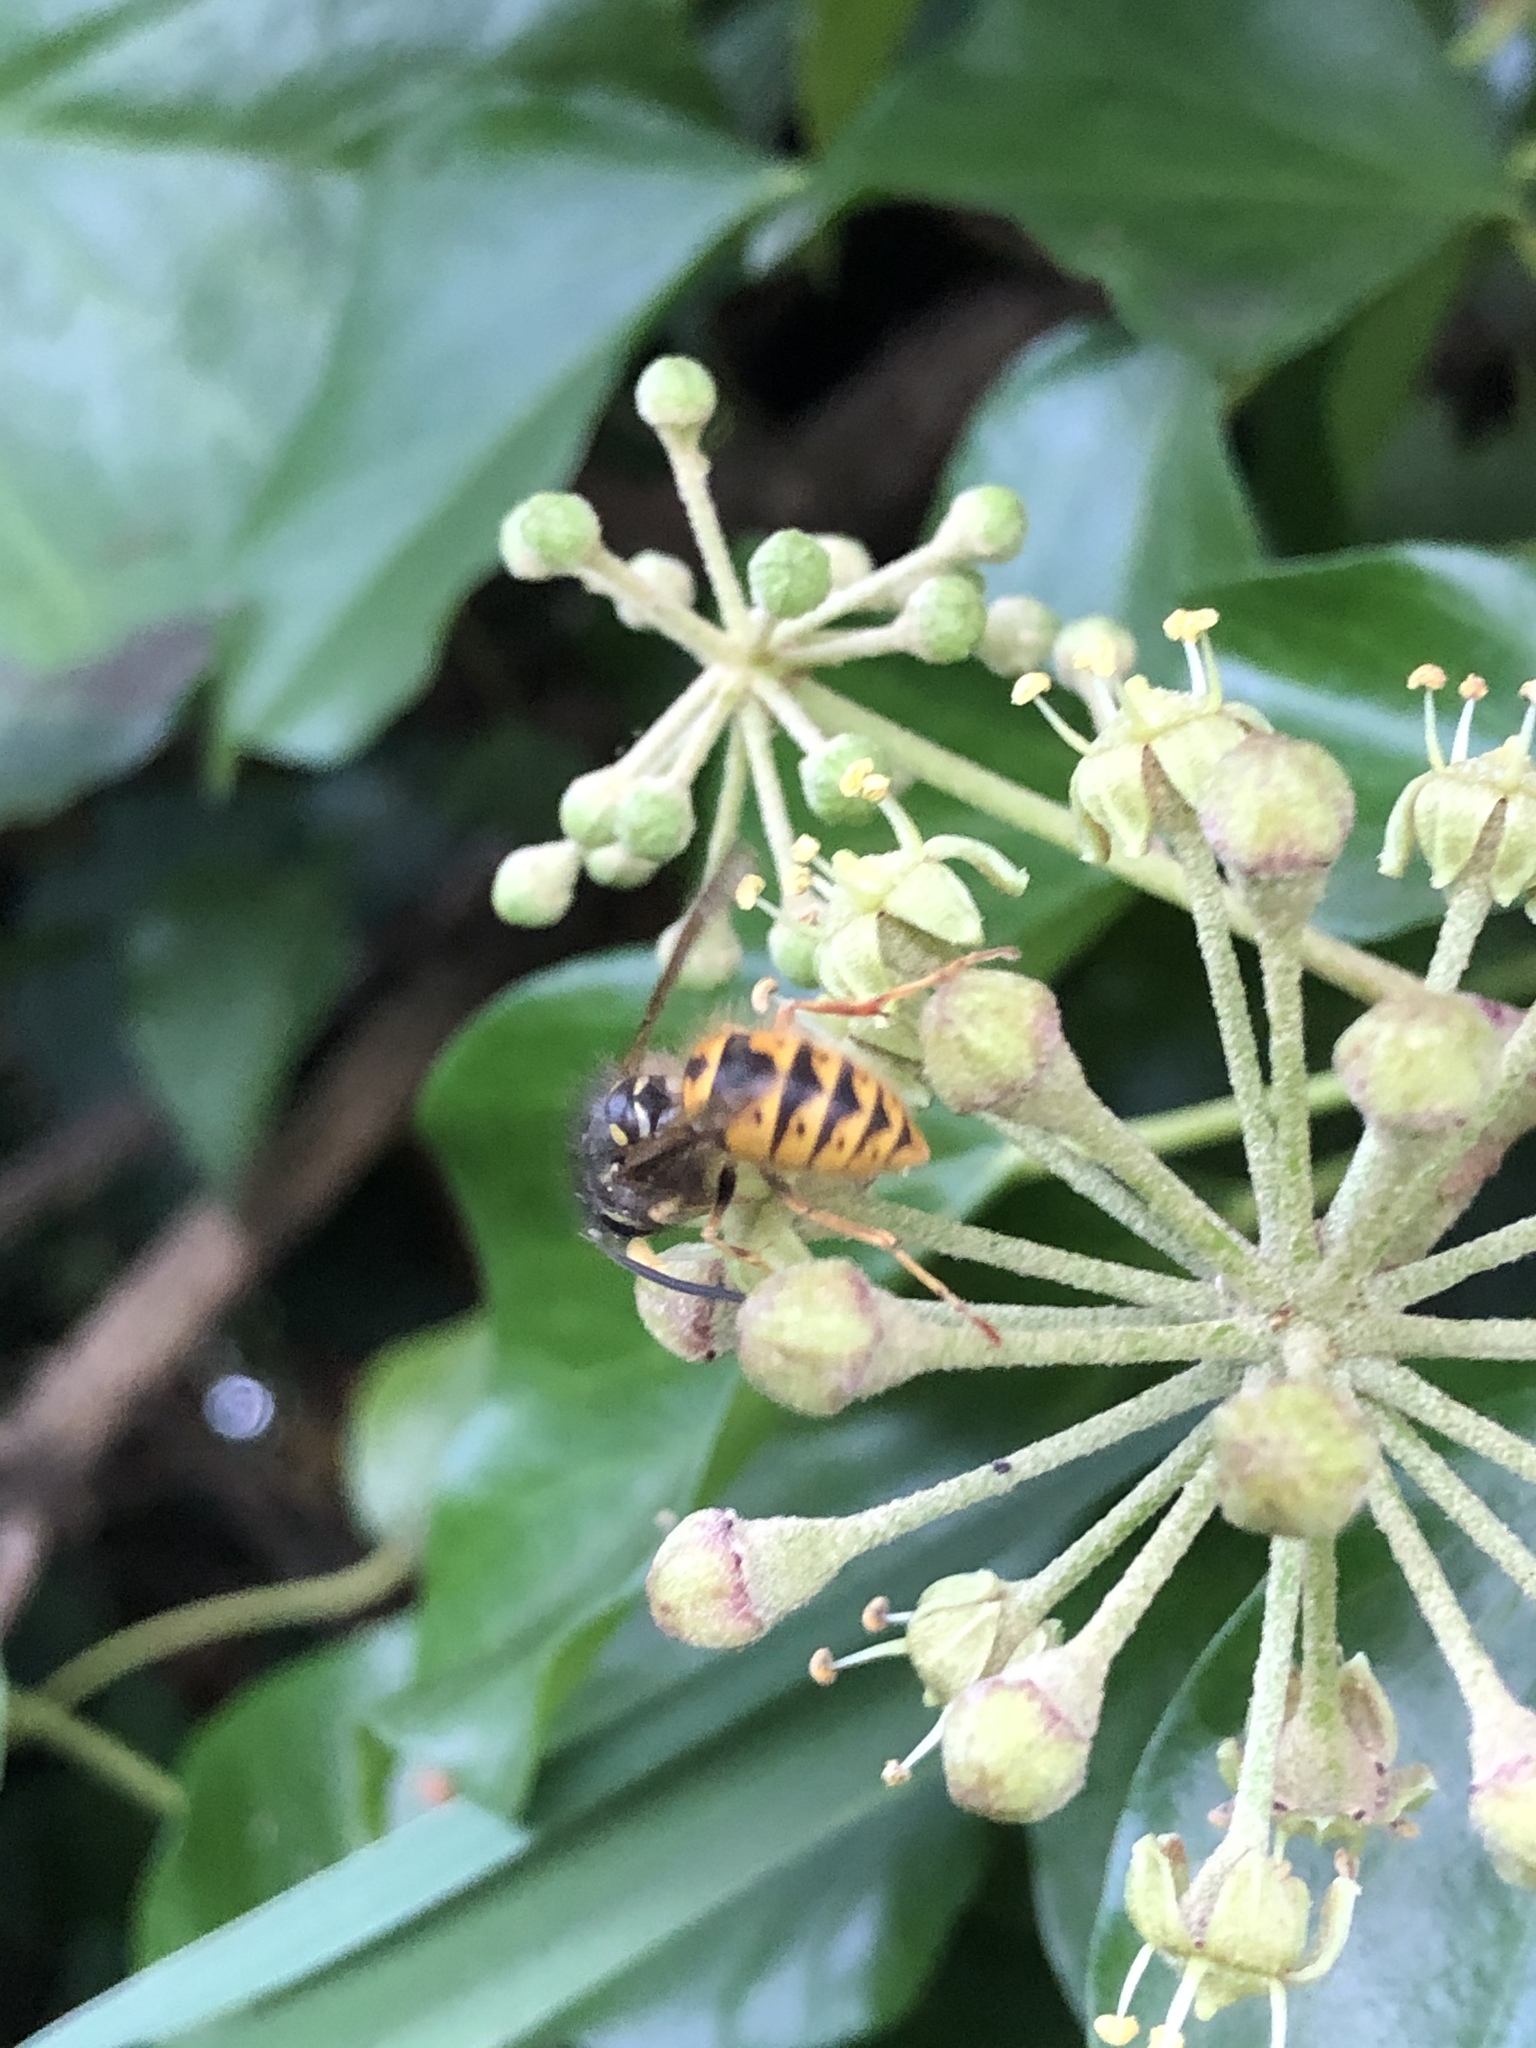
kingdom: Animalia
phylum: Arthropoda
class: Insecta
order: Hymenoptera
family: Vespidae
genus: Vespula
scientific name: Vespula vulgaris
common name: Common wasp
